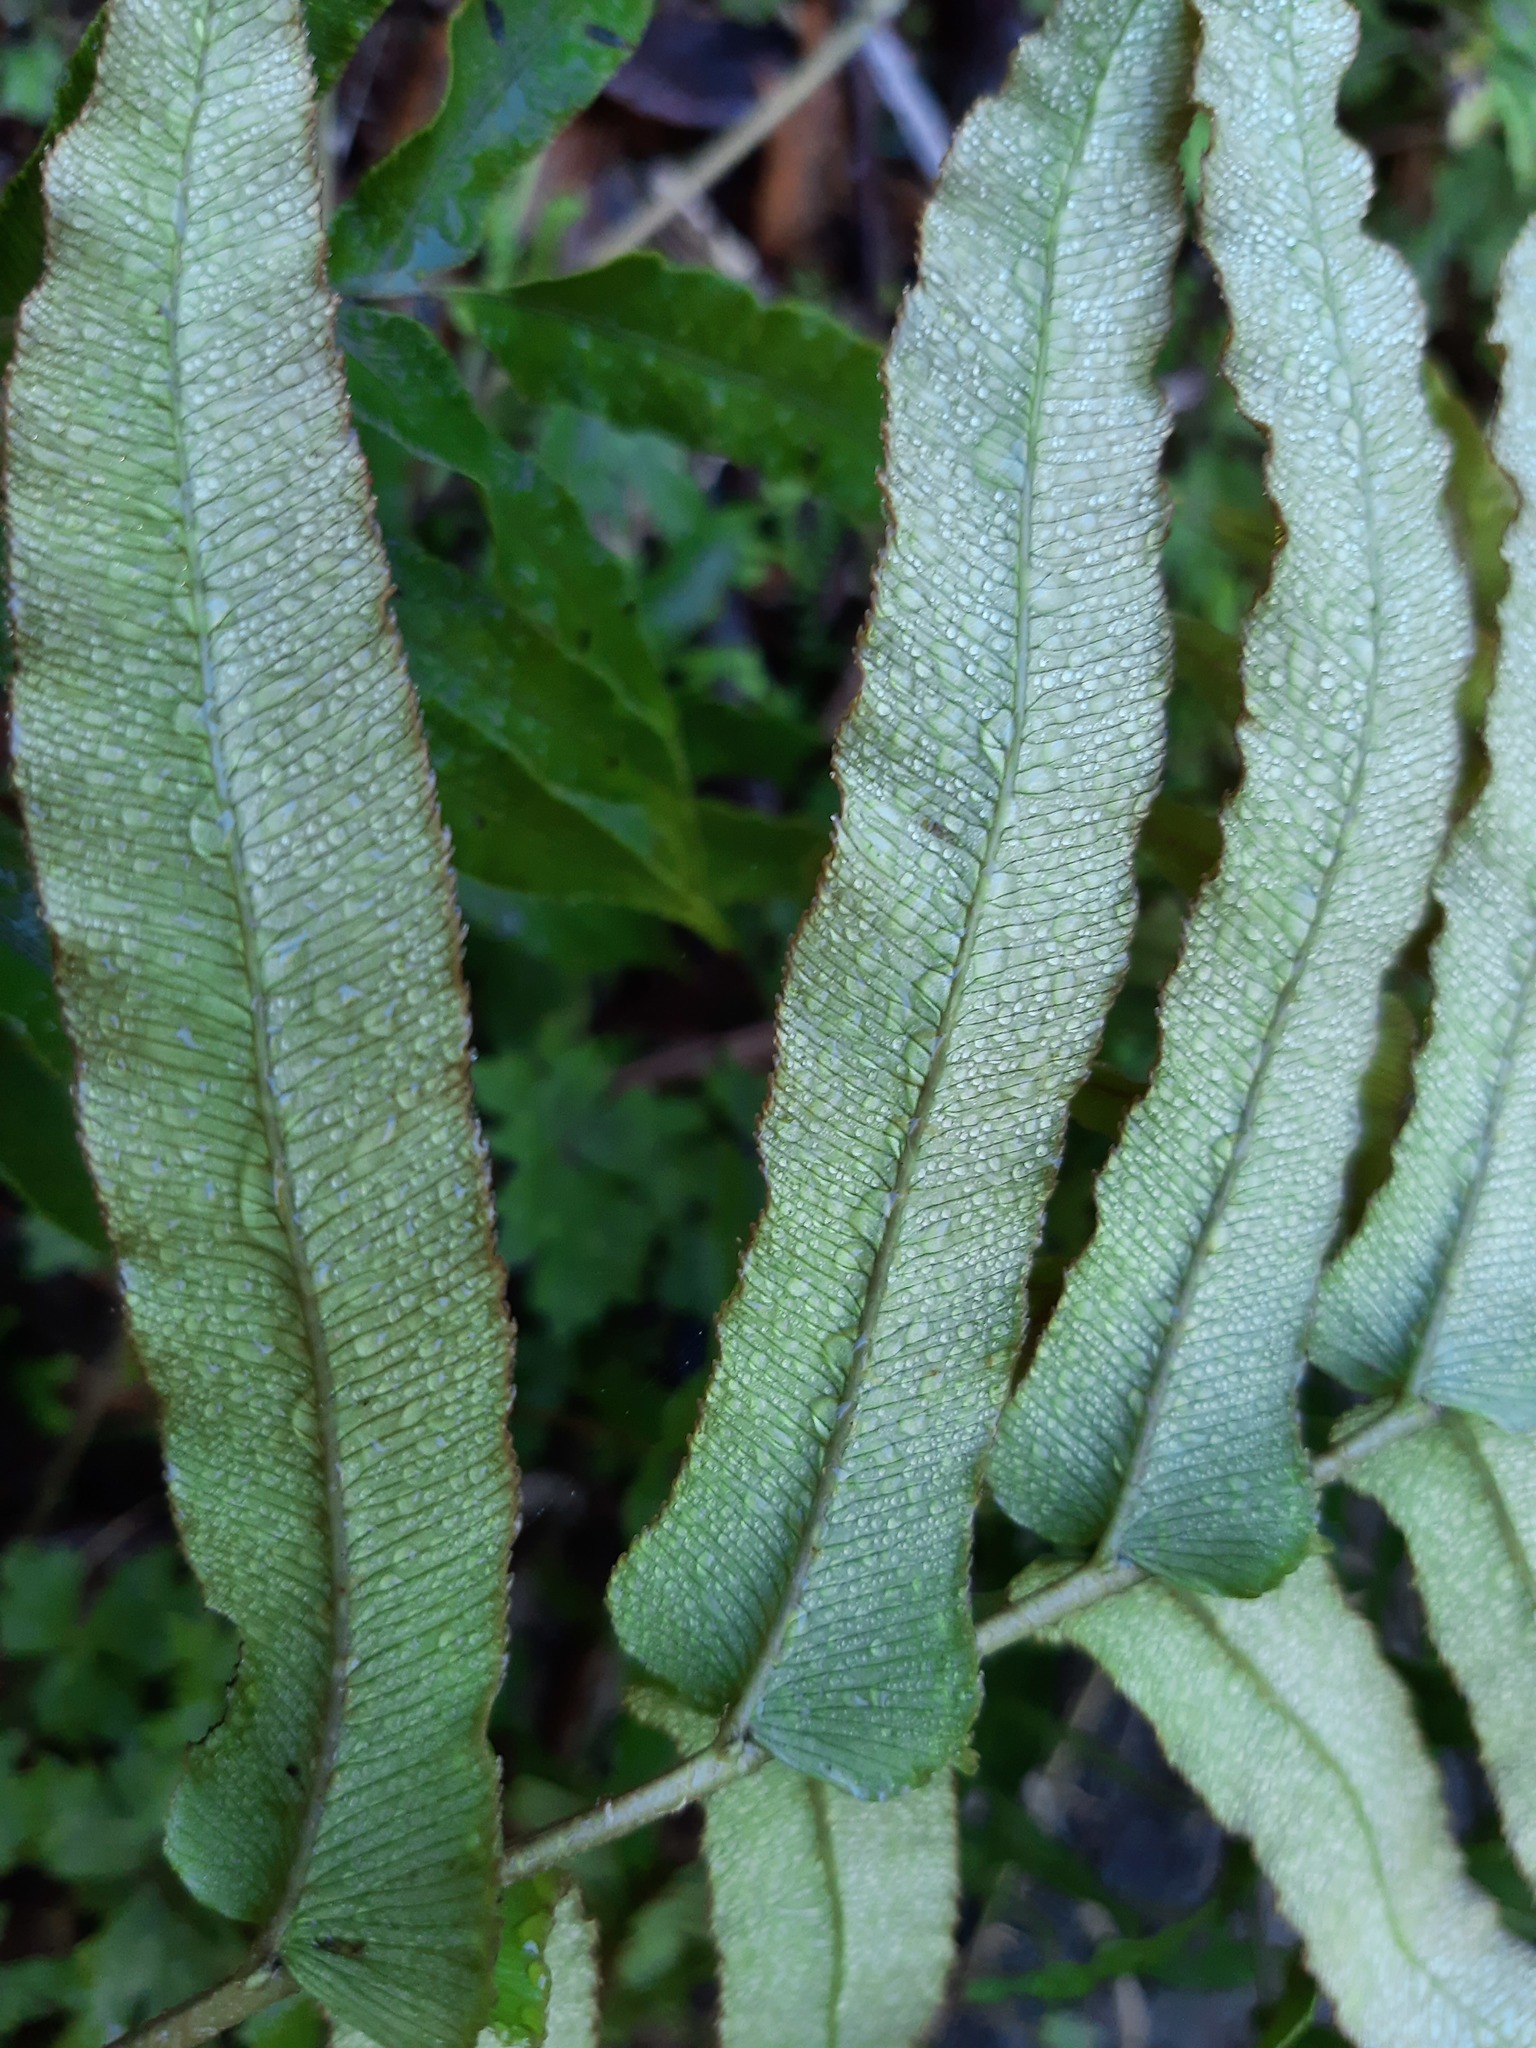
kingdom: Plantae
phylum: Tracheophyta
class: Polypodiopsida
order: Polypodiales
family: Blechnaceae
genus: Parablechnum
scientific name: Parablechnum novae-zelandiae
